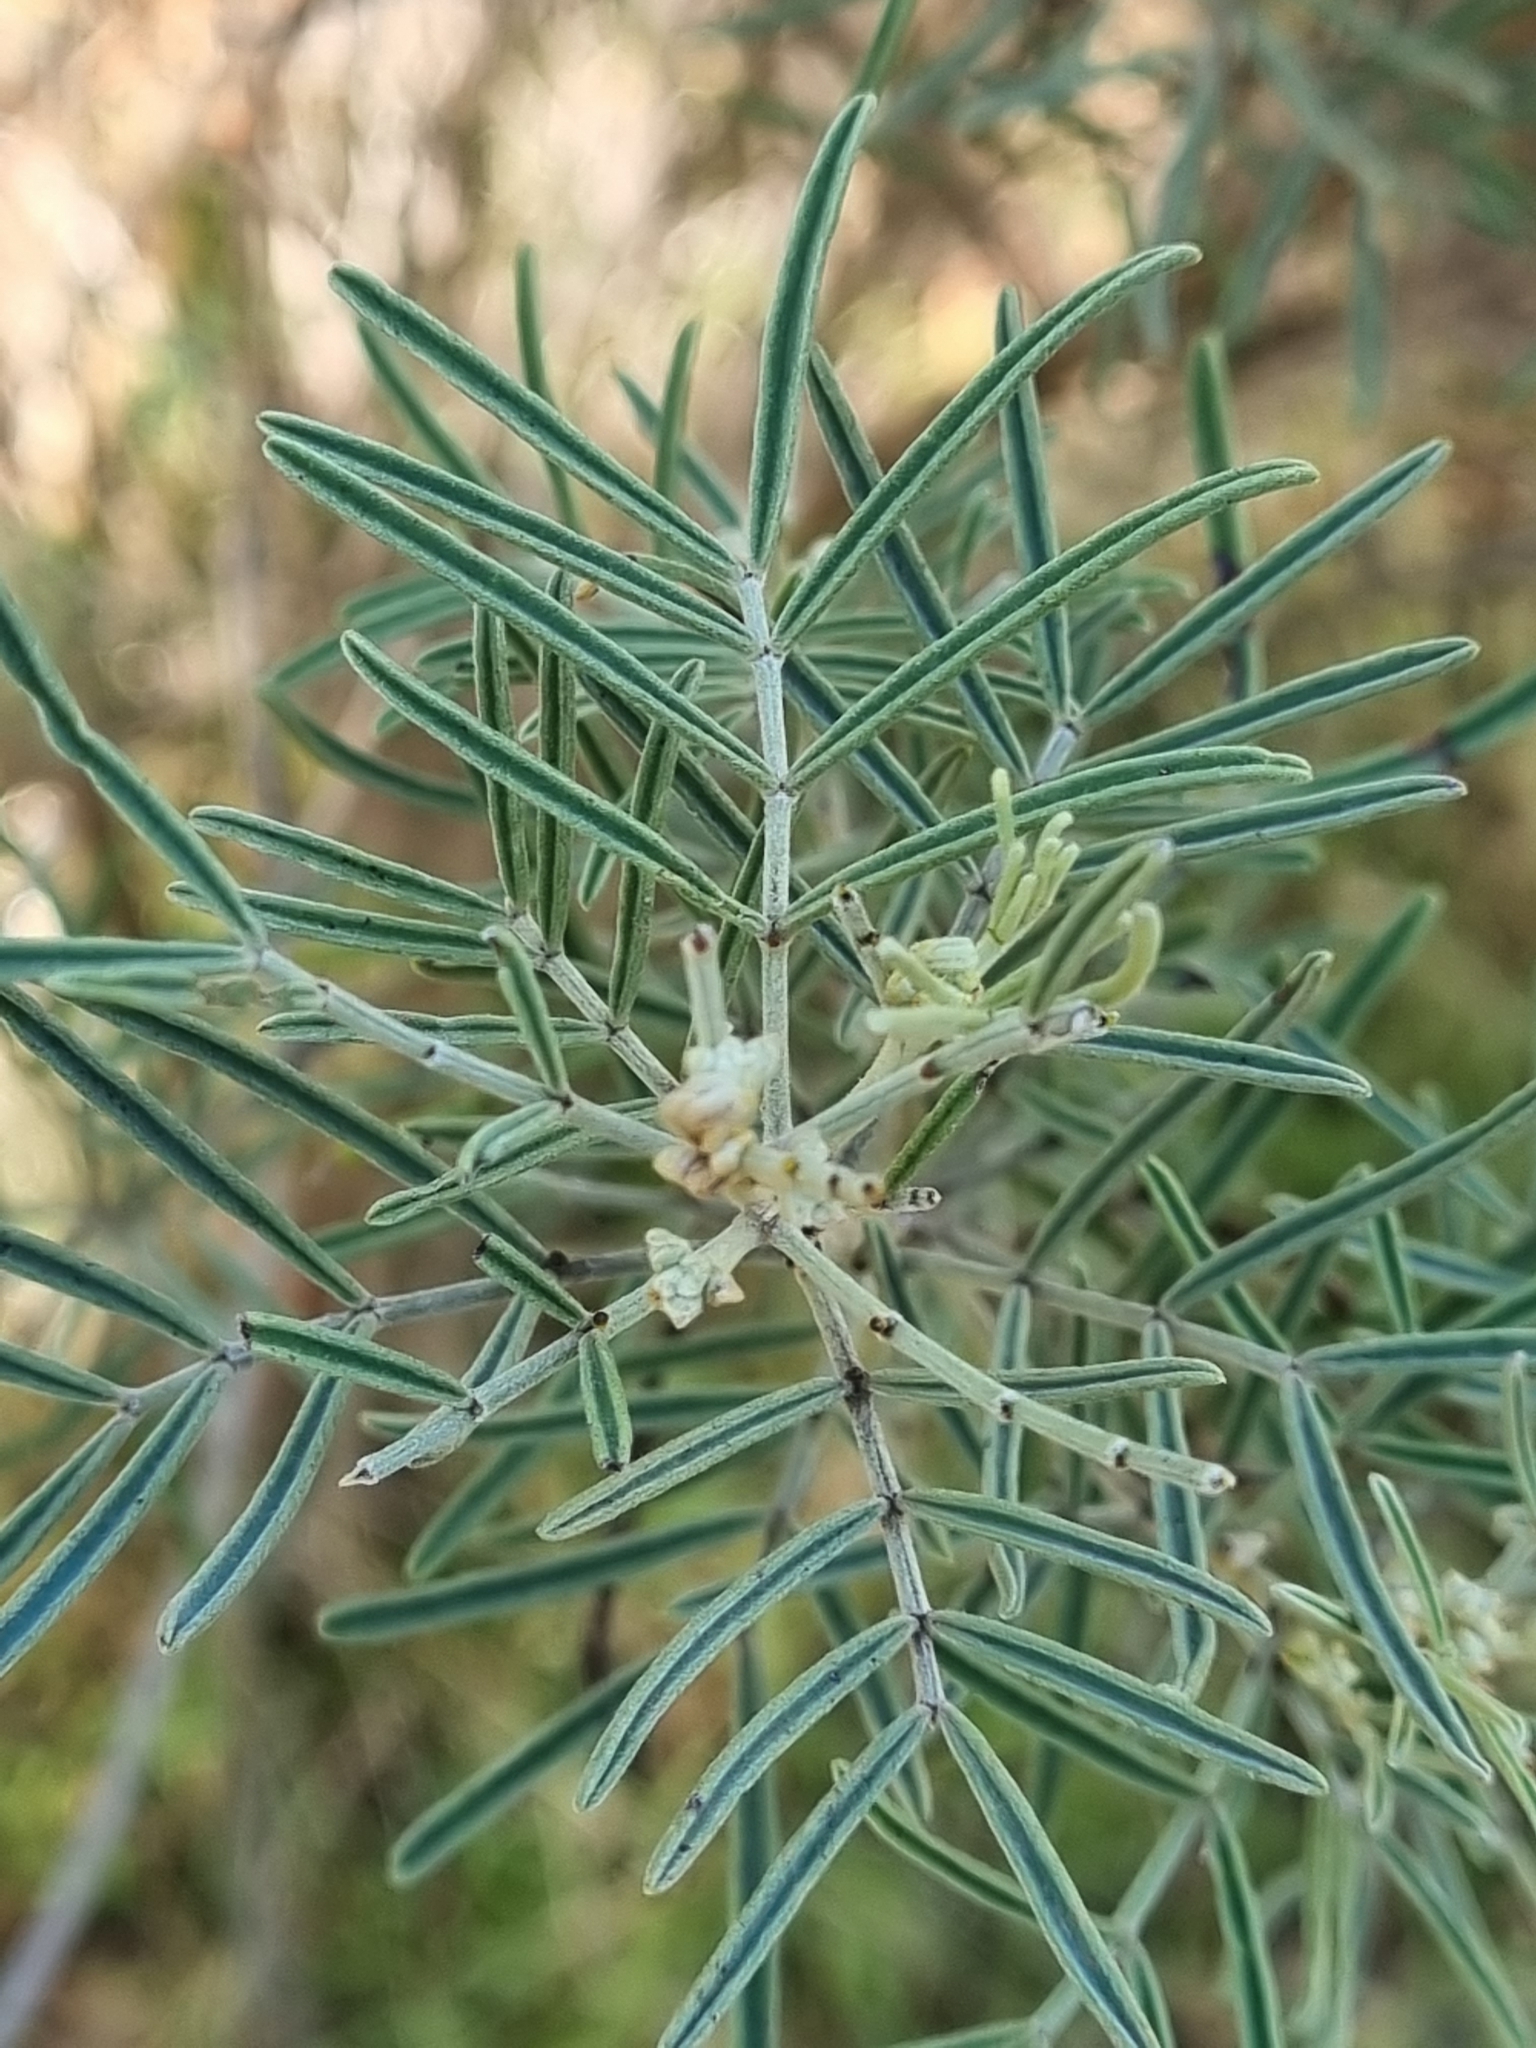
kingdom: Plantae
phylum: Tracheophyta
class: Magnoliopsida
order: Fabales
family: Fabaceae
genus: Senna
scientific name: Senna artemisioides
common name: Burnt-leaved acacia
